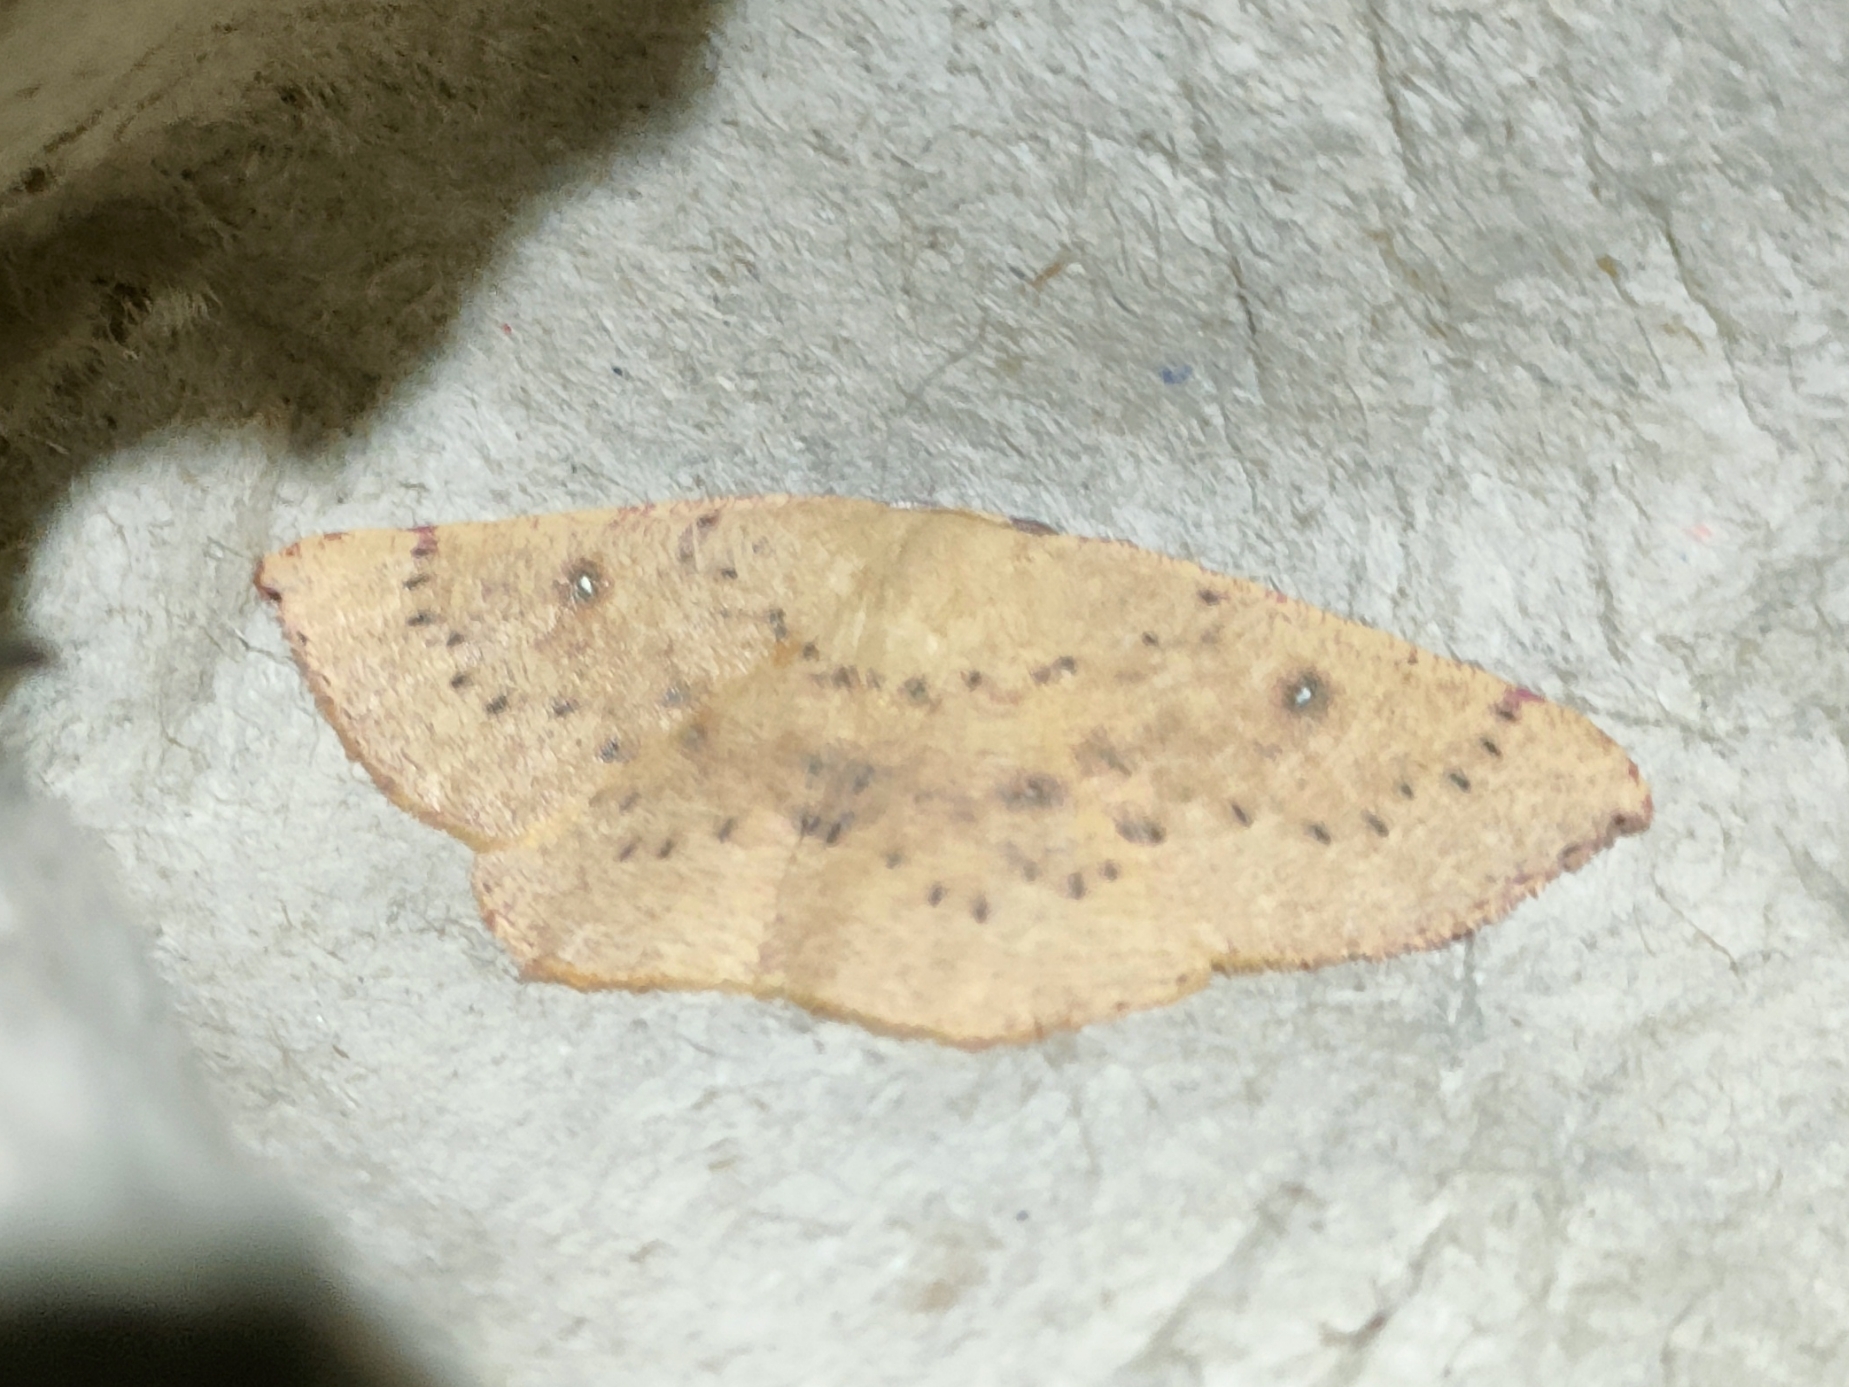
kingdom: Animalia
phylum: Arthropoda
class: Insecta
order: Lepidoptera
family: Geometridae
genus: Cyclophora
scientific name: Cyclophora puppillaria
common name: Blair's mocha
